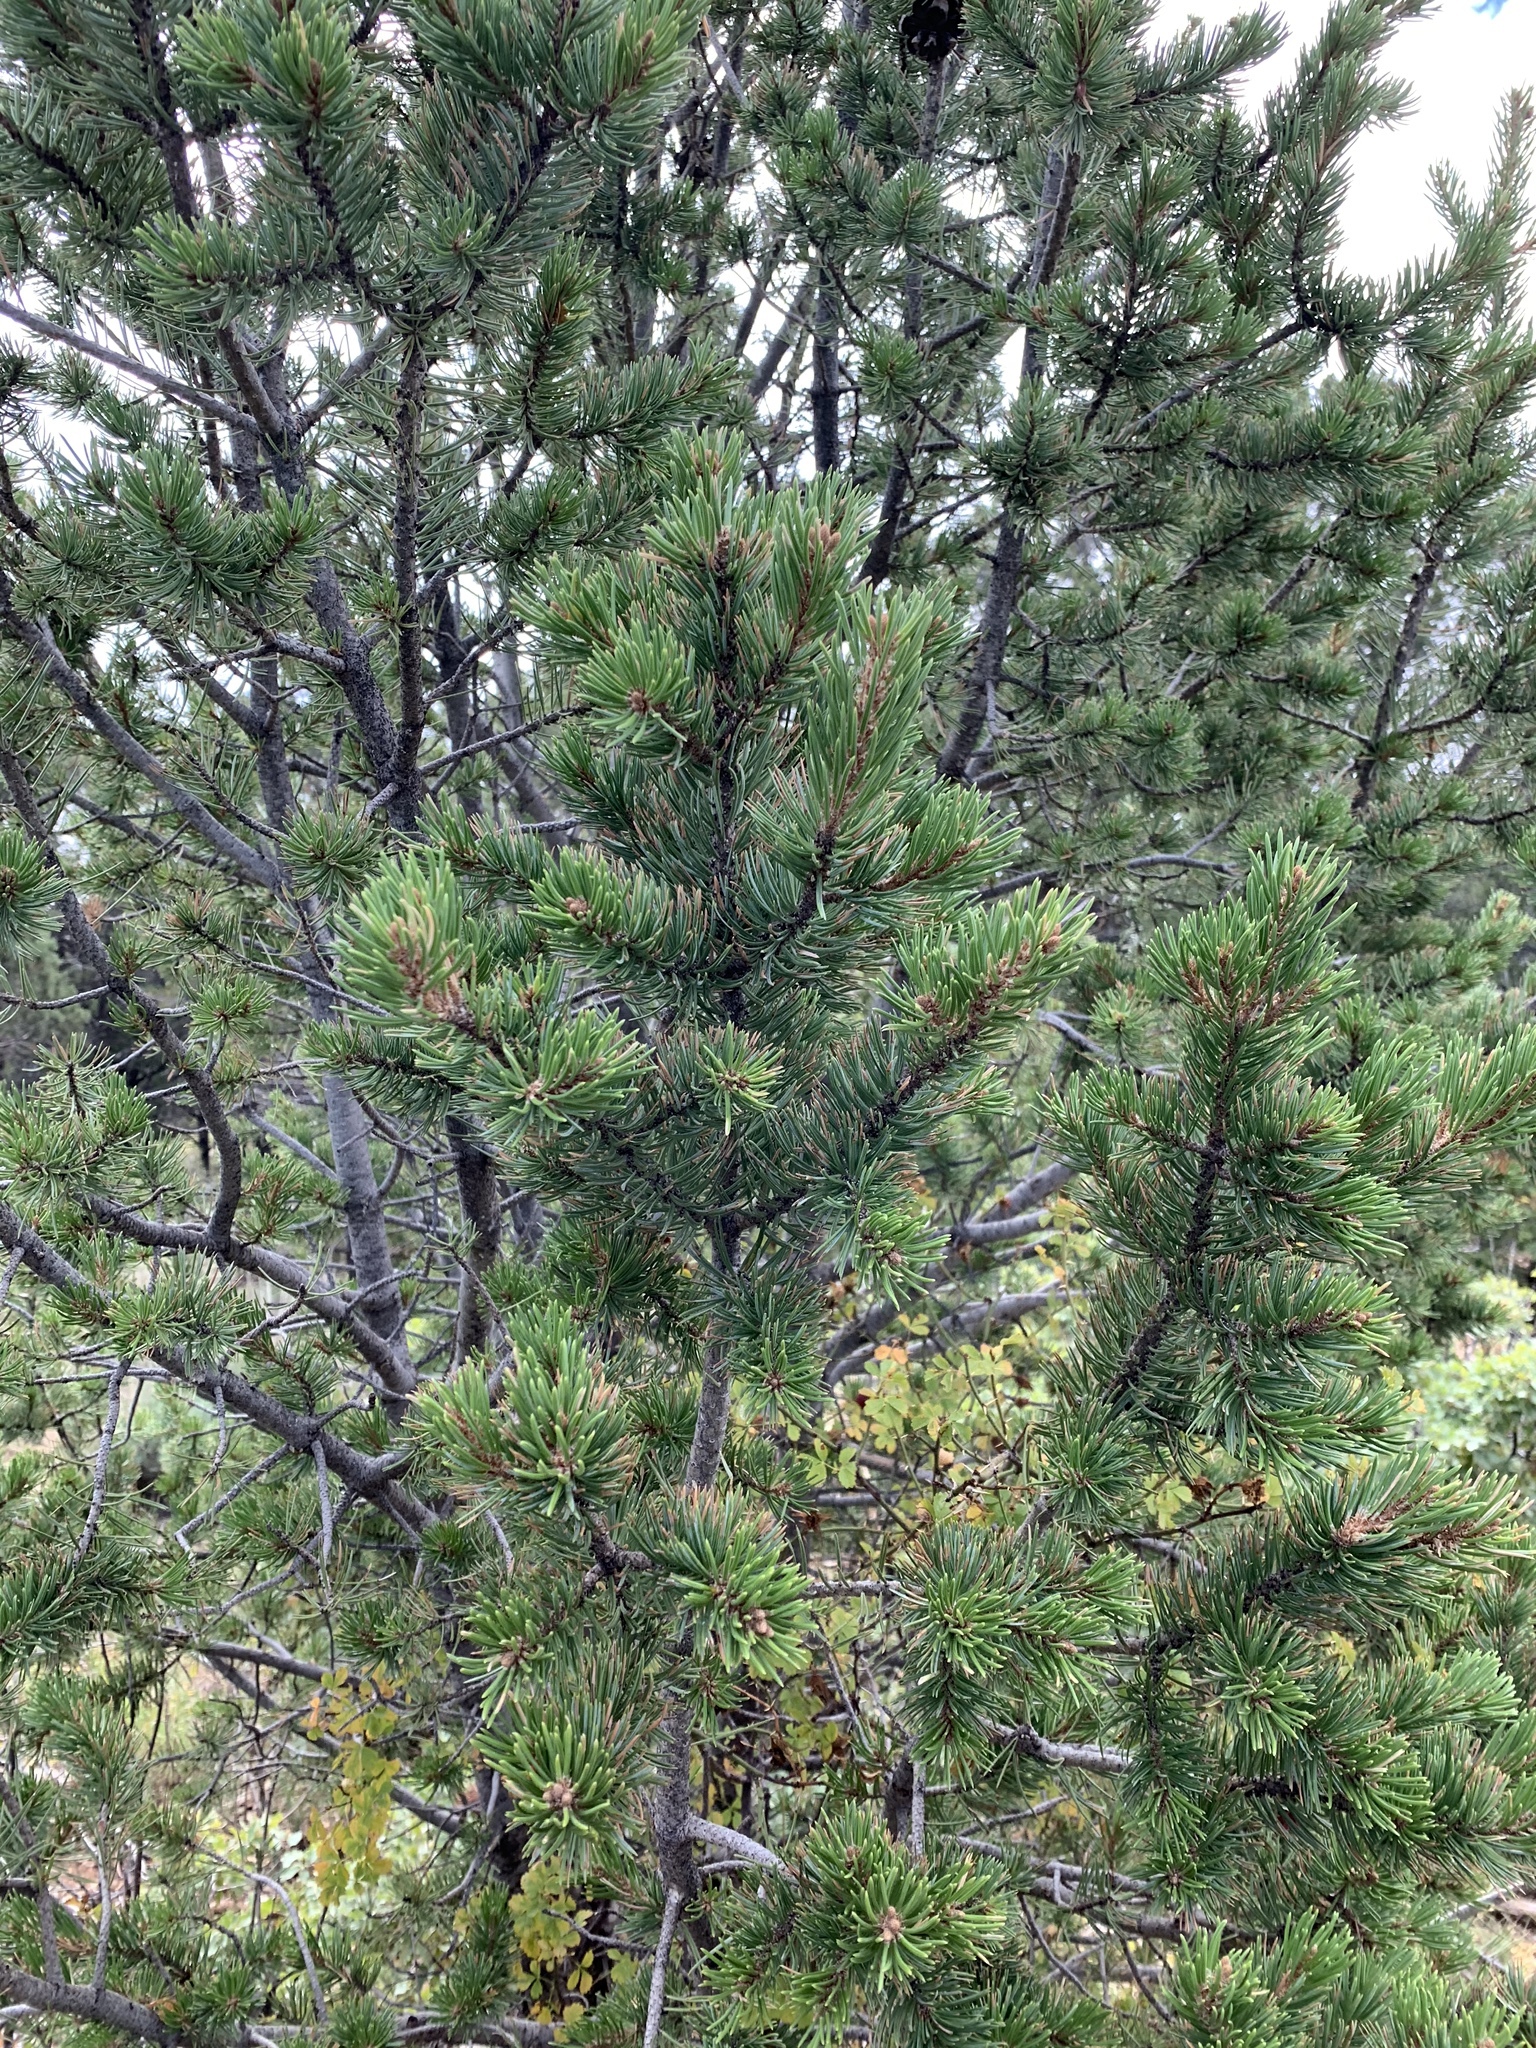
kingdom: Plantae
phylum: Tracheophyta
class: Pinopsida
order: Pinales
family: Pinaceae
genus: Pinus
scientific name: Pinus edulis
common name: Colorado pinyon
